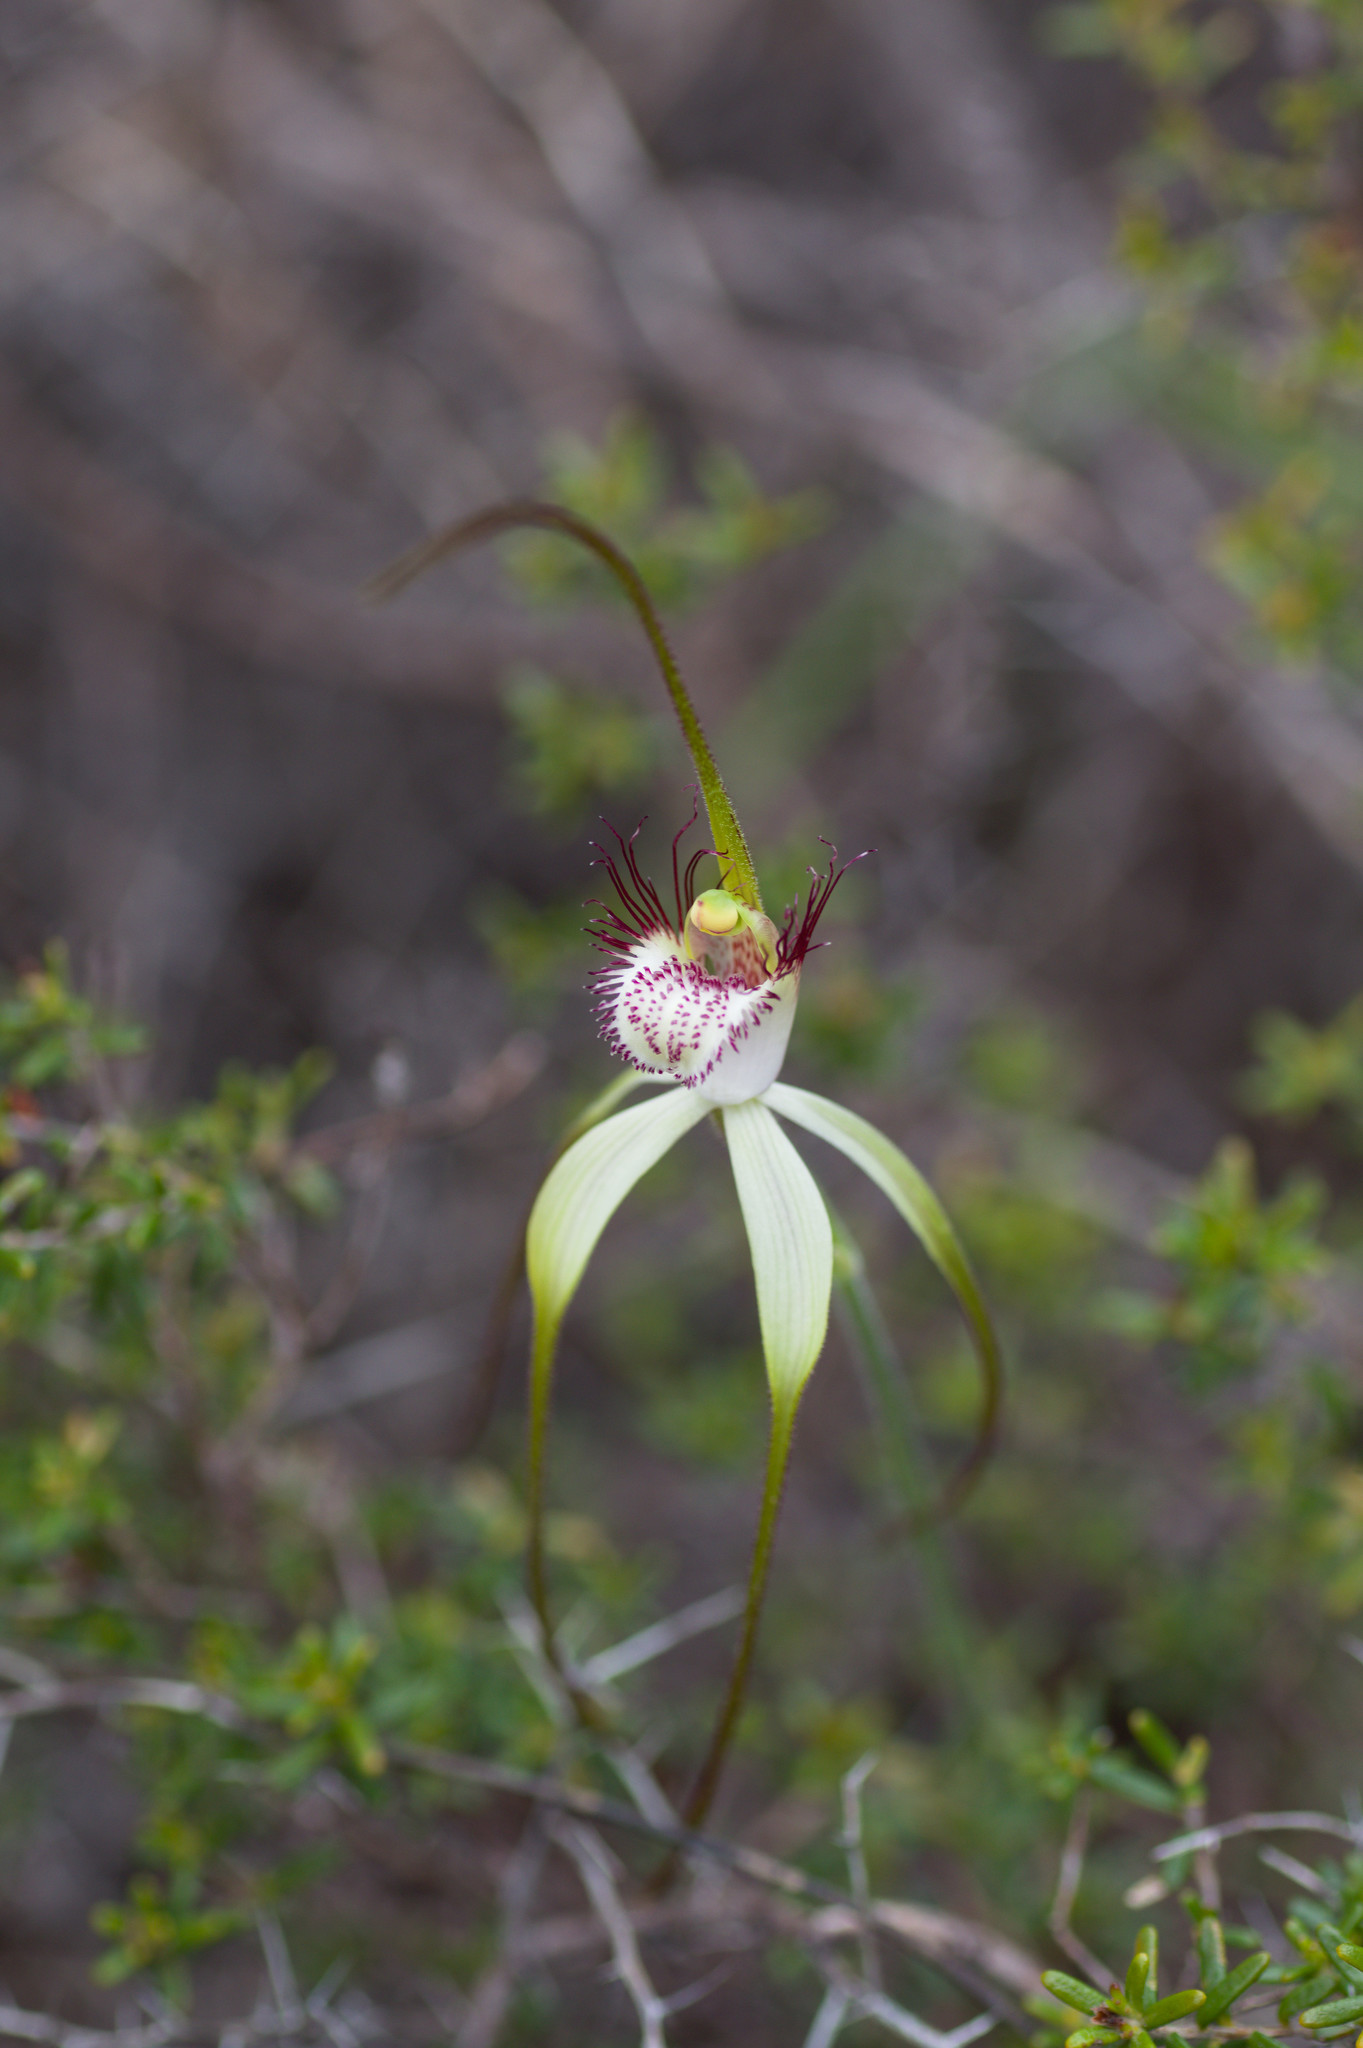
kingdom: Plantae
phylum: Tracheophyta
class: Liliopsida
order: Asparagales
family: Orchidaceae
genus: Caladenia
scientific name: Caladenia longicauda
